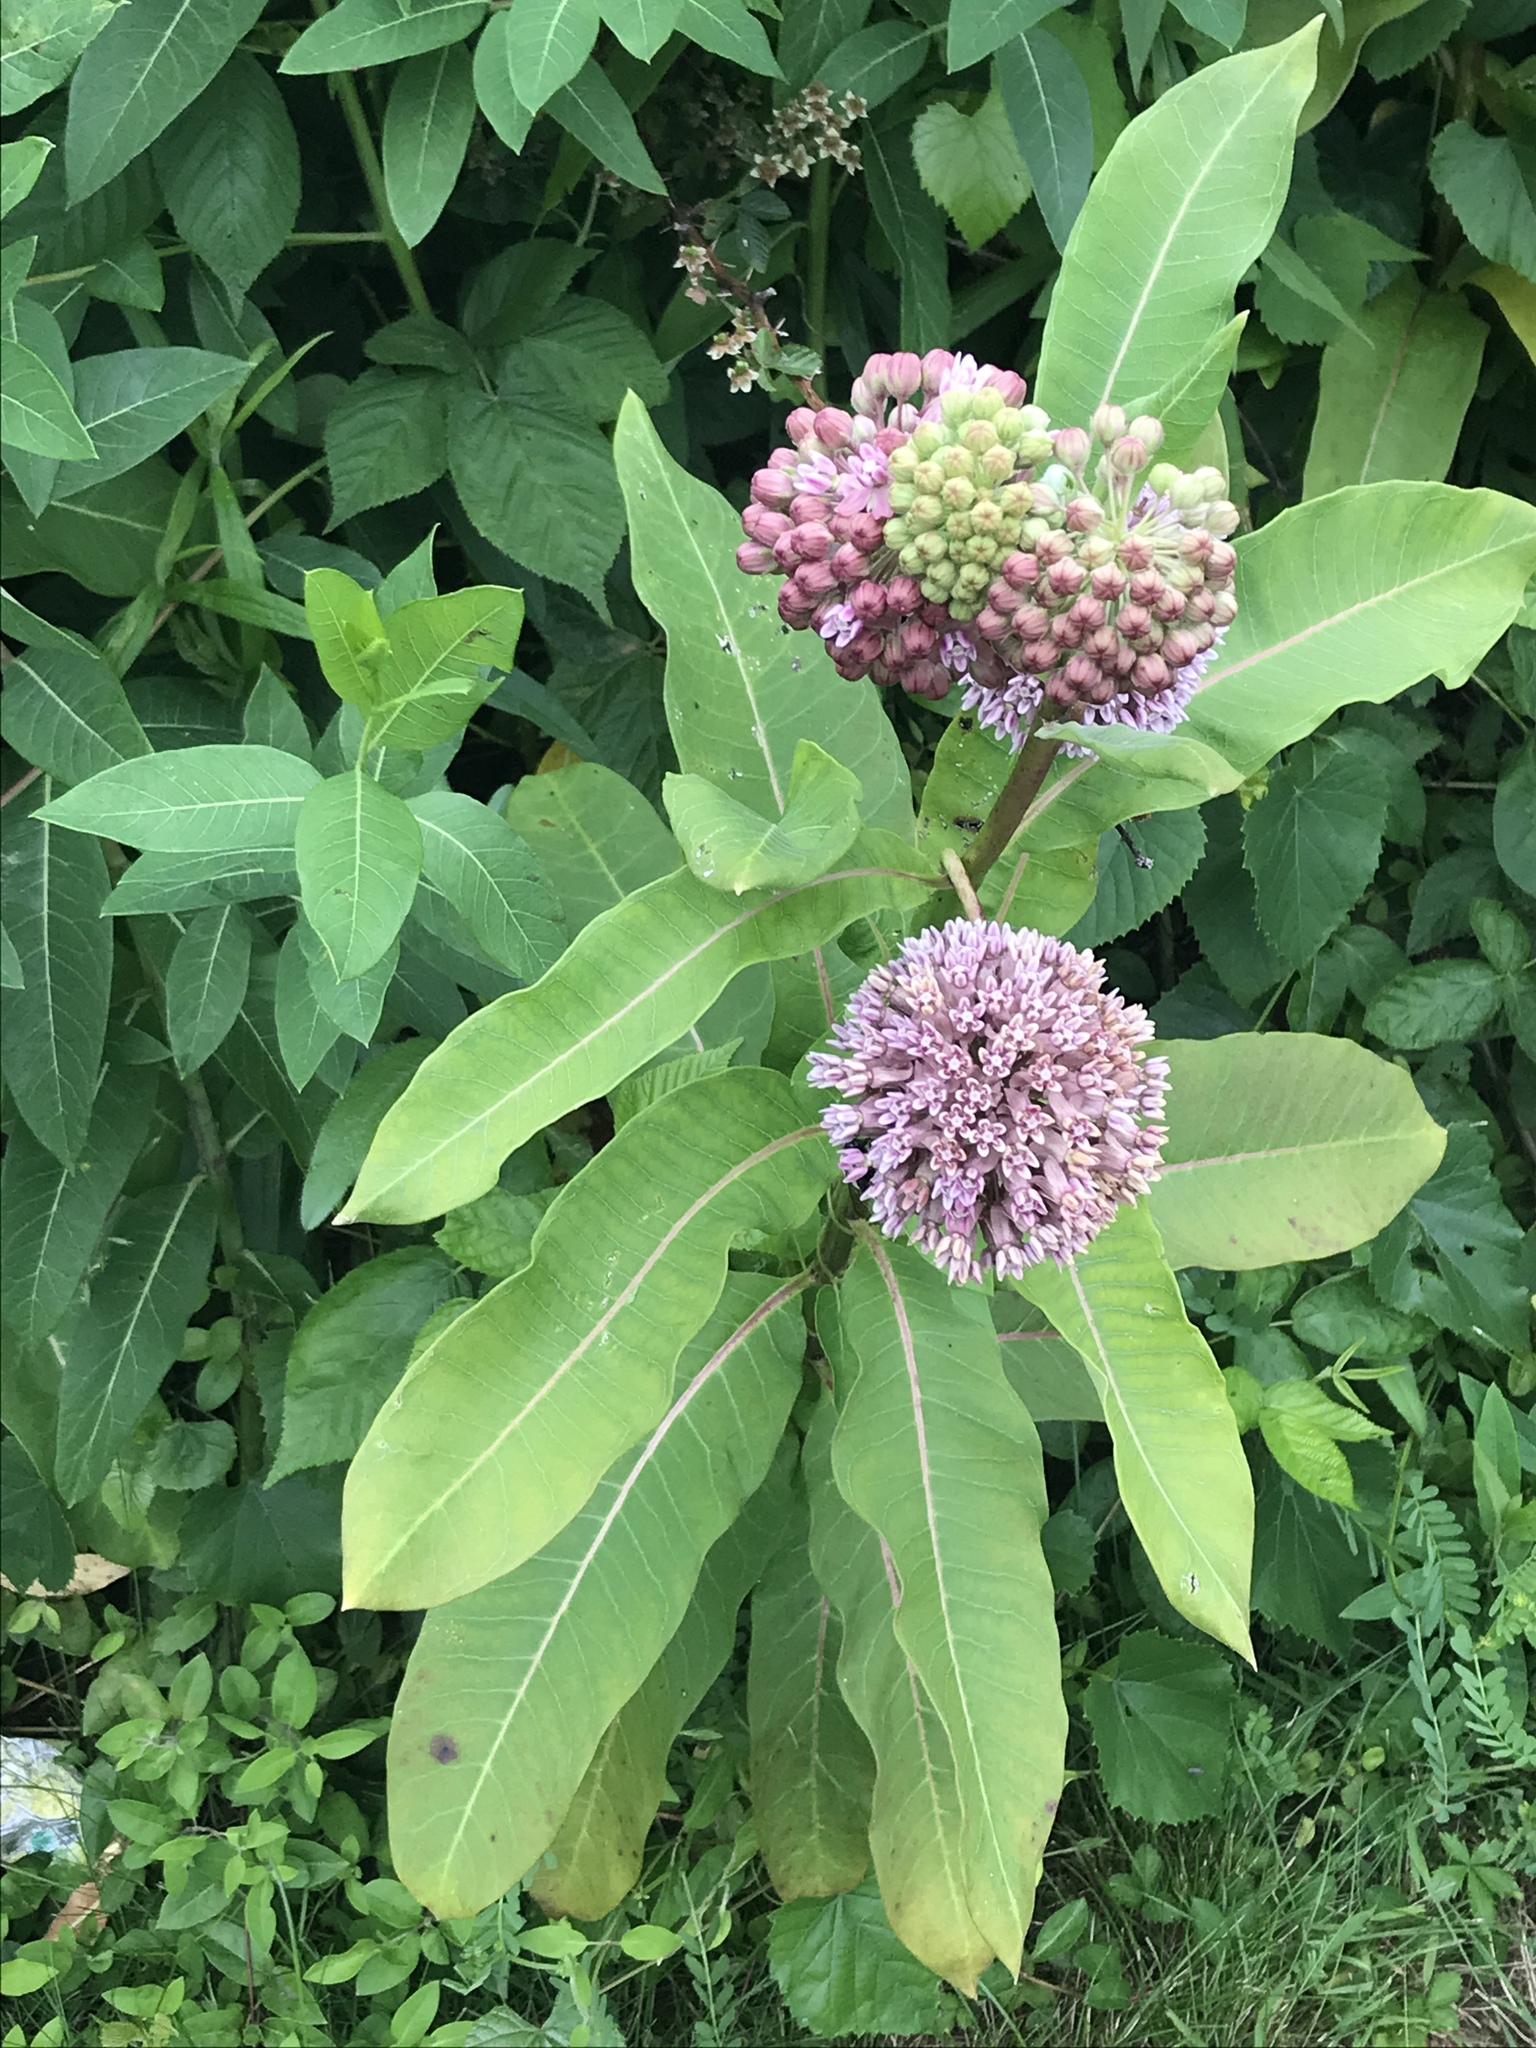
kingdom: Plantae
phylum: Tracheophyta
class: Magnoliopsida
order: Gentianales
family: Apocynaceae
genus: Asclepias
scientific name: Asclepias syriaca
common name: Common milkweed
